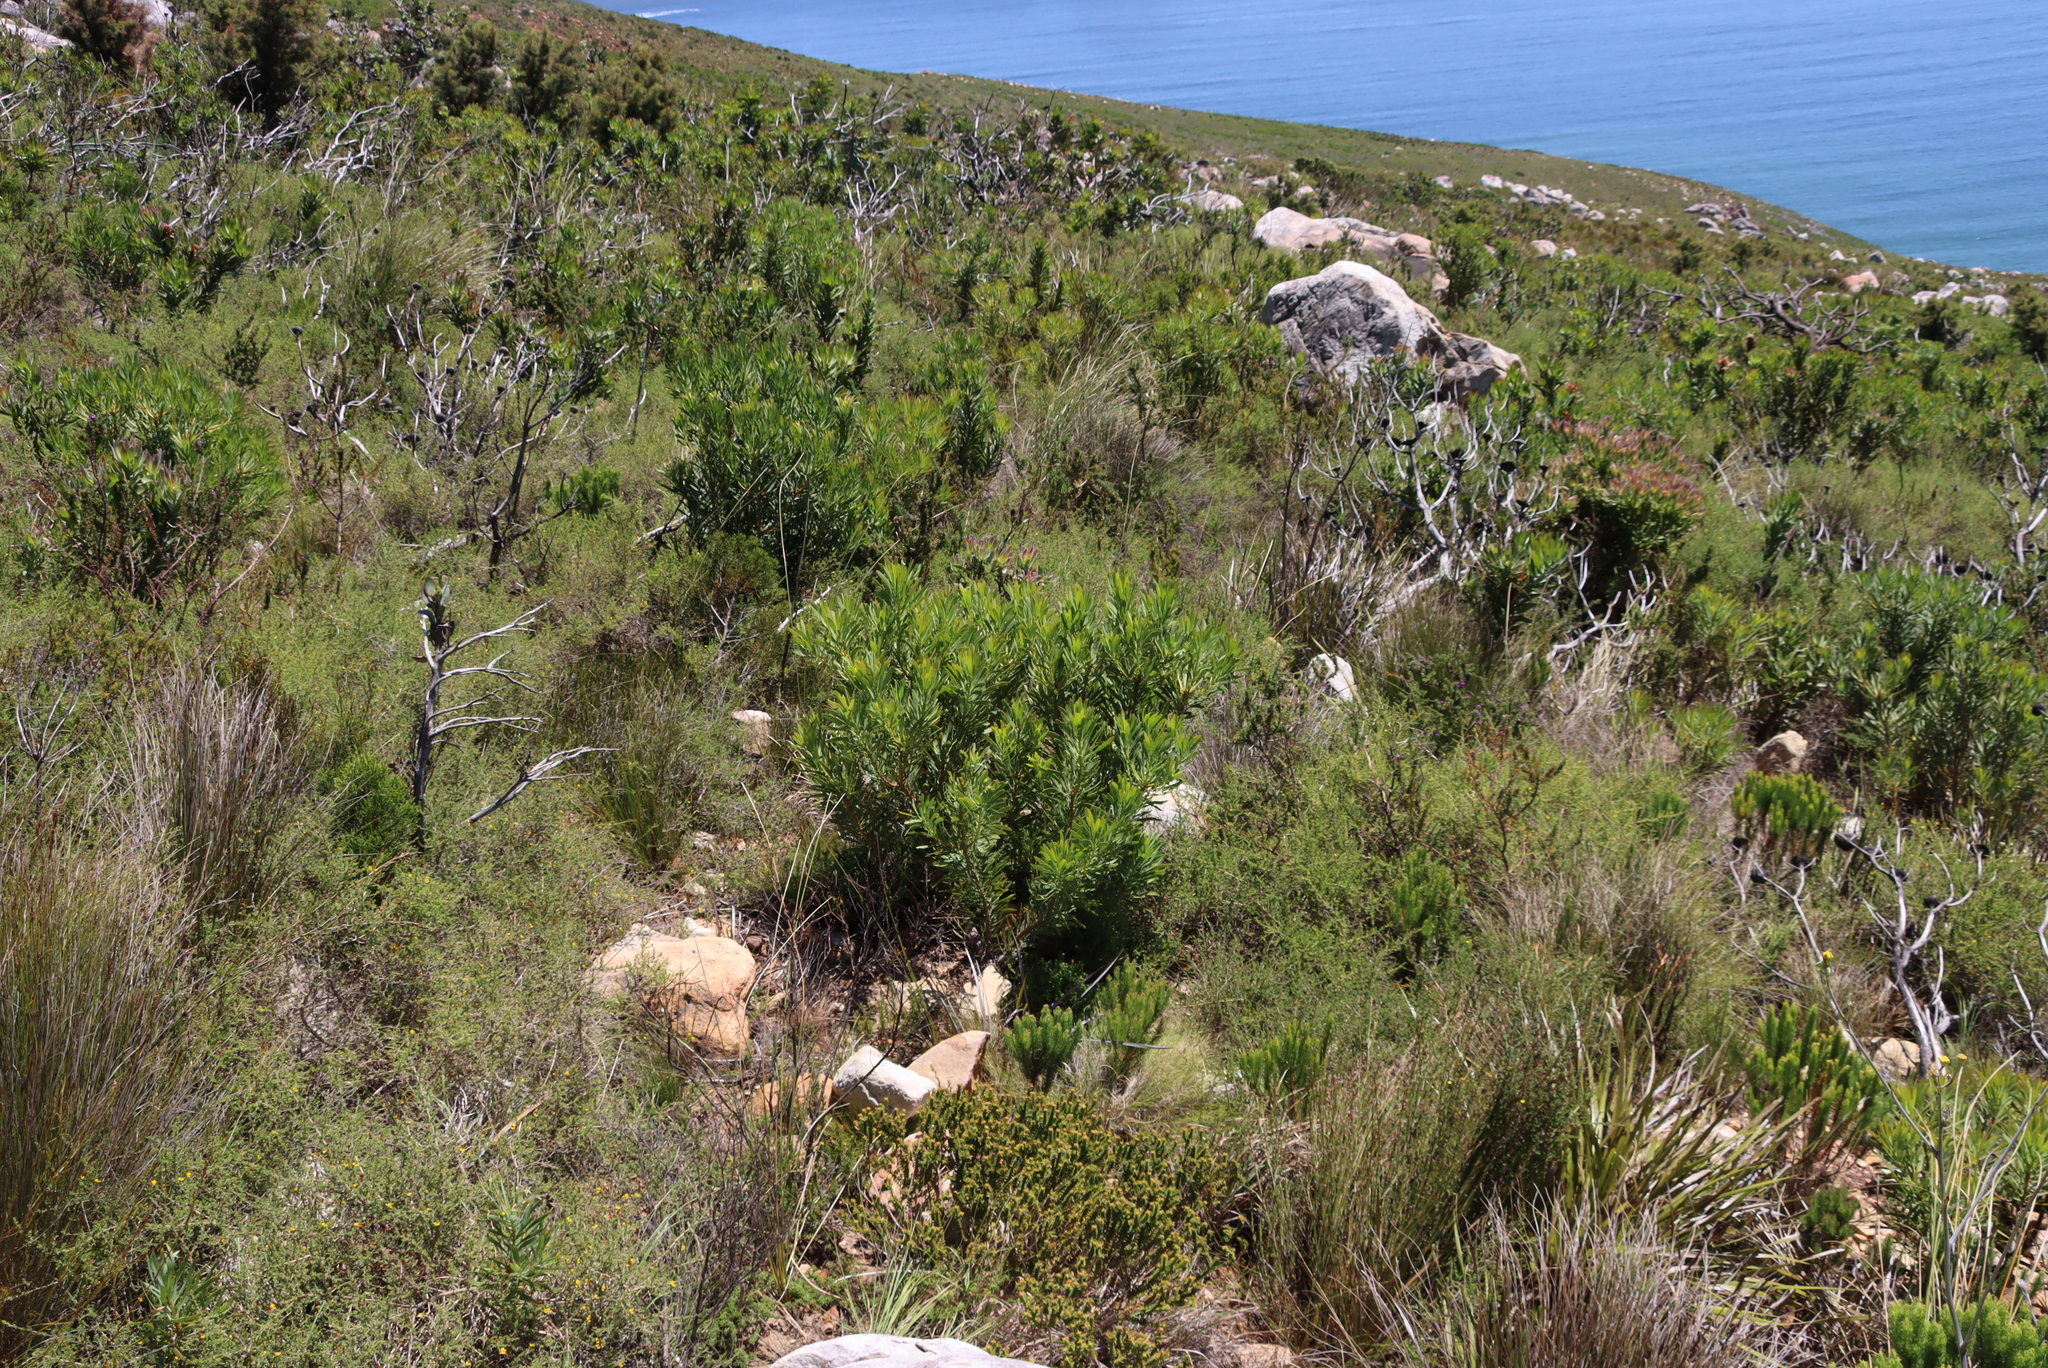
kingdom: Plantae
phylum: Tracheophyta
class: Magnoliopsida
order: Proteales
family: Proteaceae
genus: Protea
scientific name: Protea repens
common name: Sugarbush
